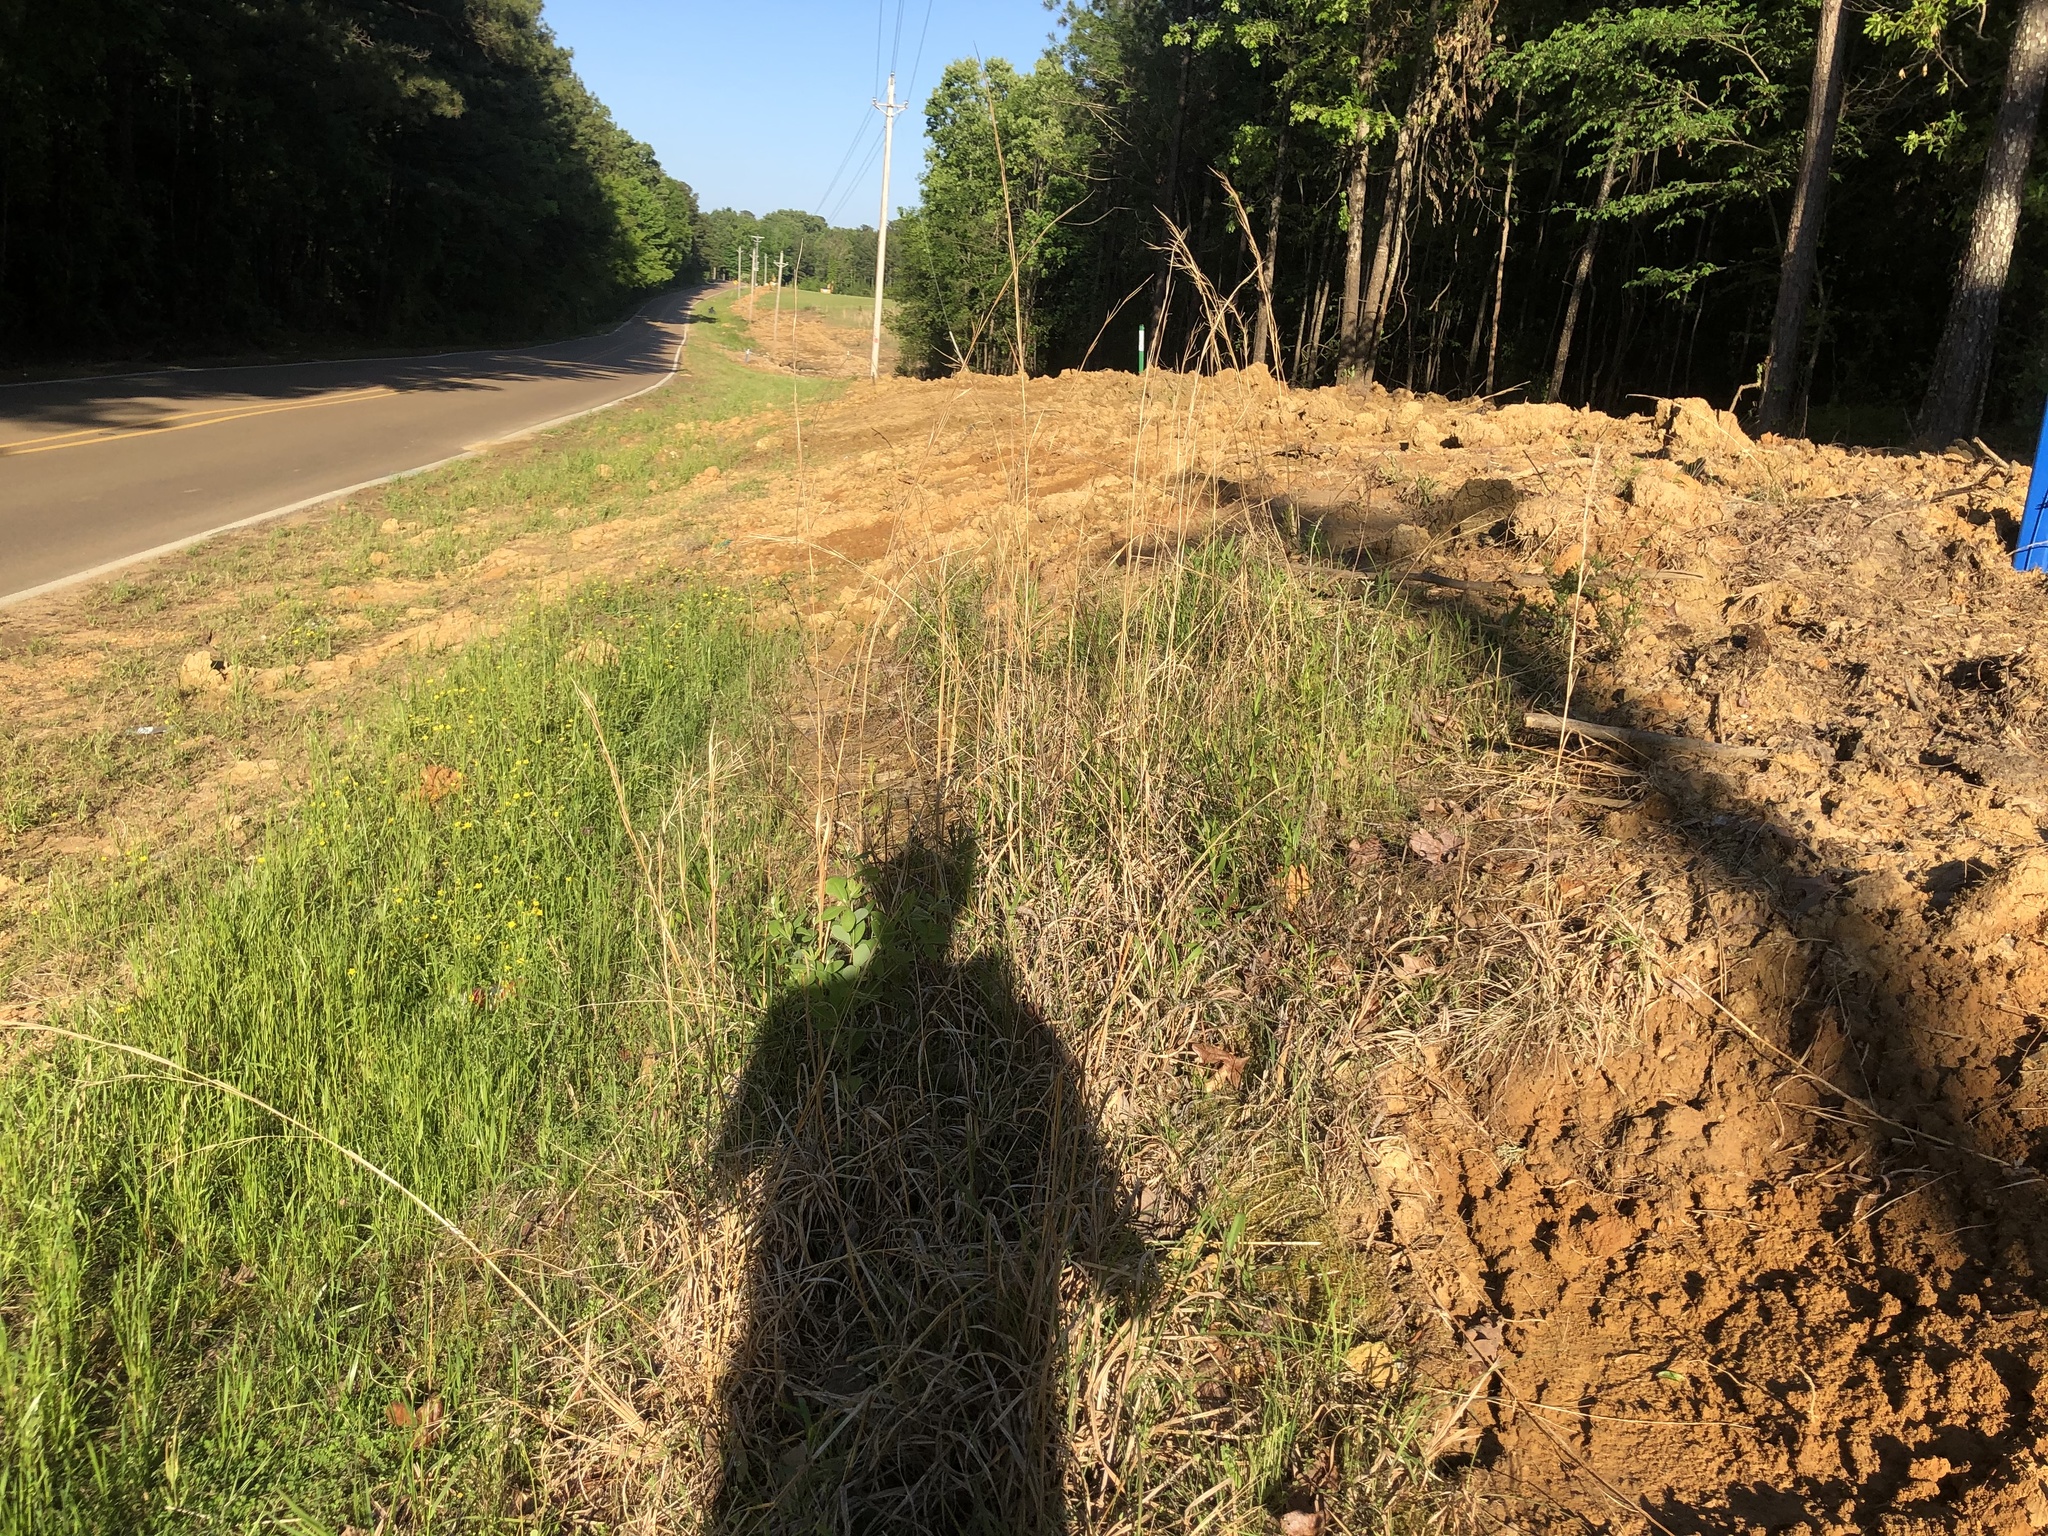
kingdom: Plantae
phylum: Tracheophyta
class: Magnoliopsida
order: Fabales
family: Fabaceae
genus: Baptisia
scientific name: Baptisia nuttalliana
